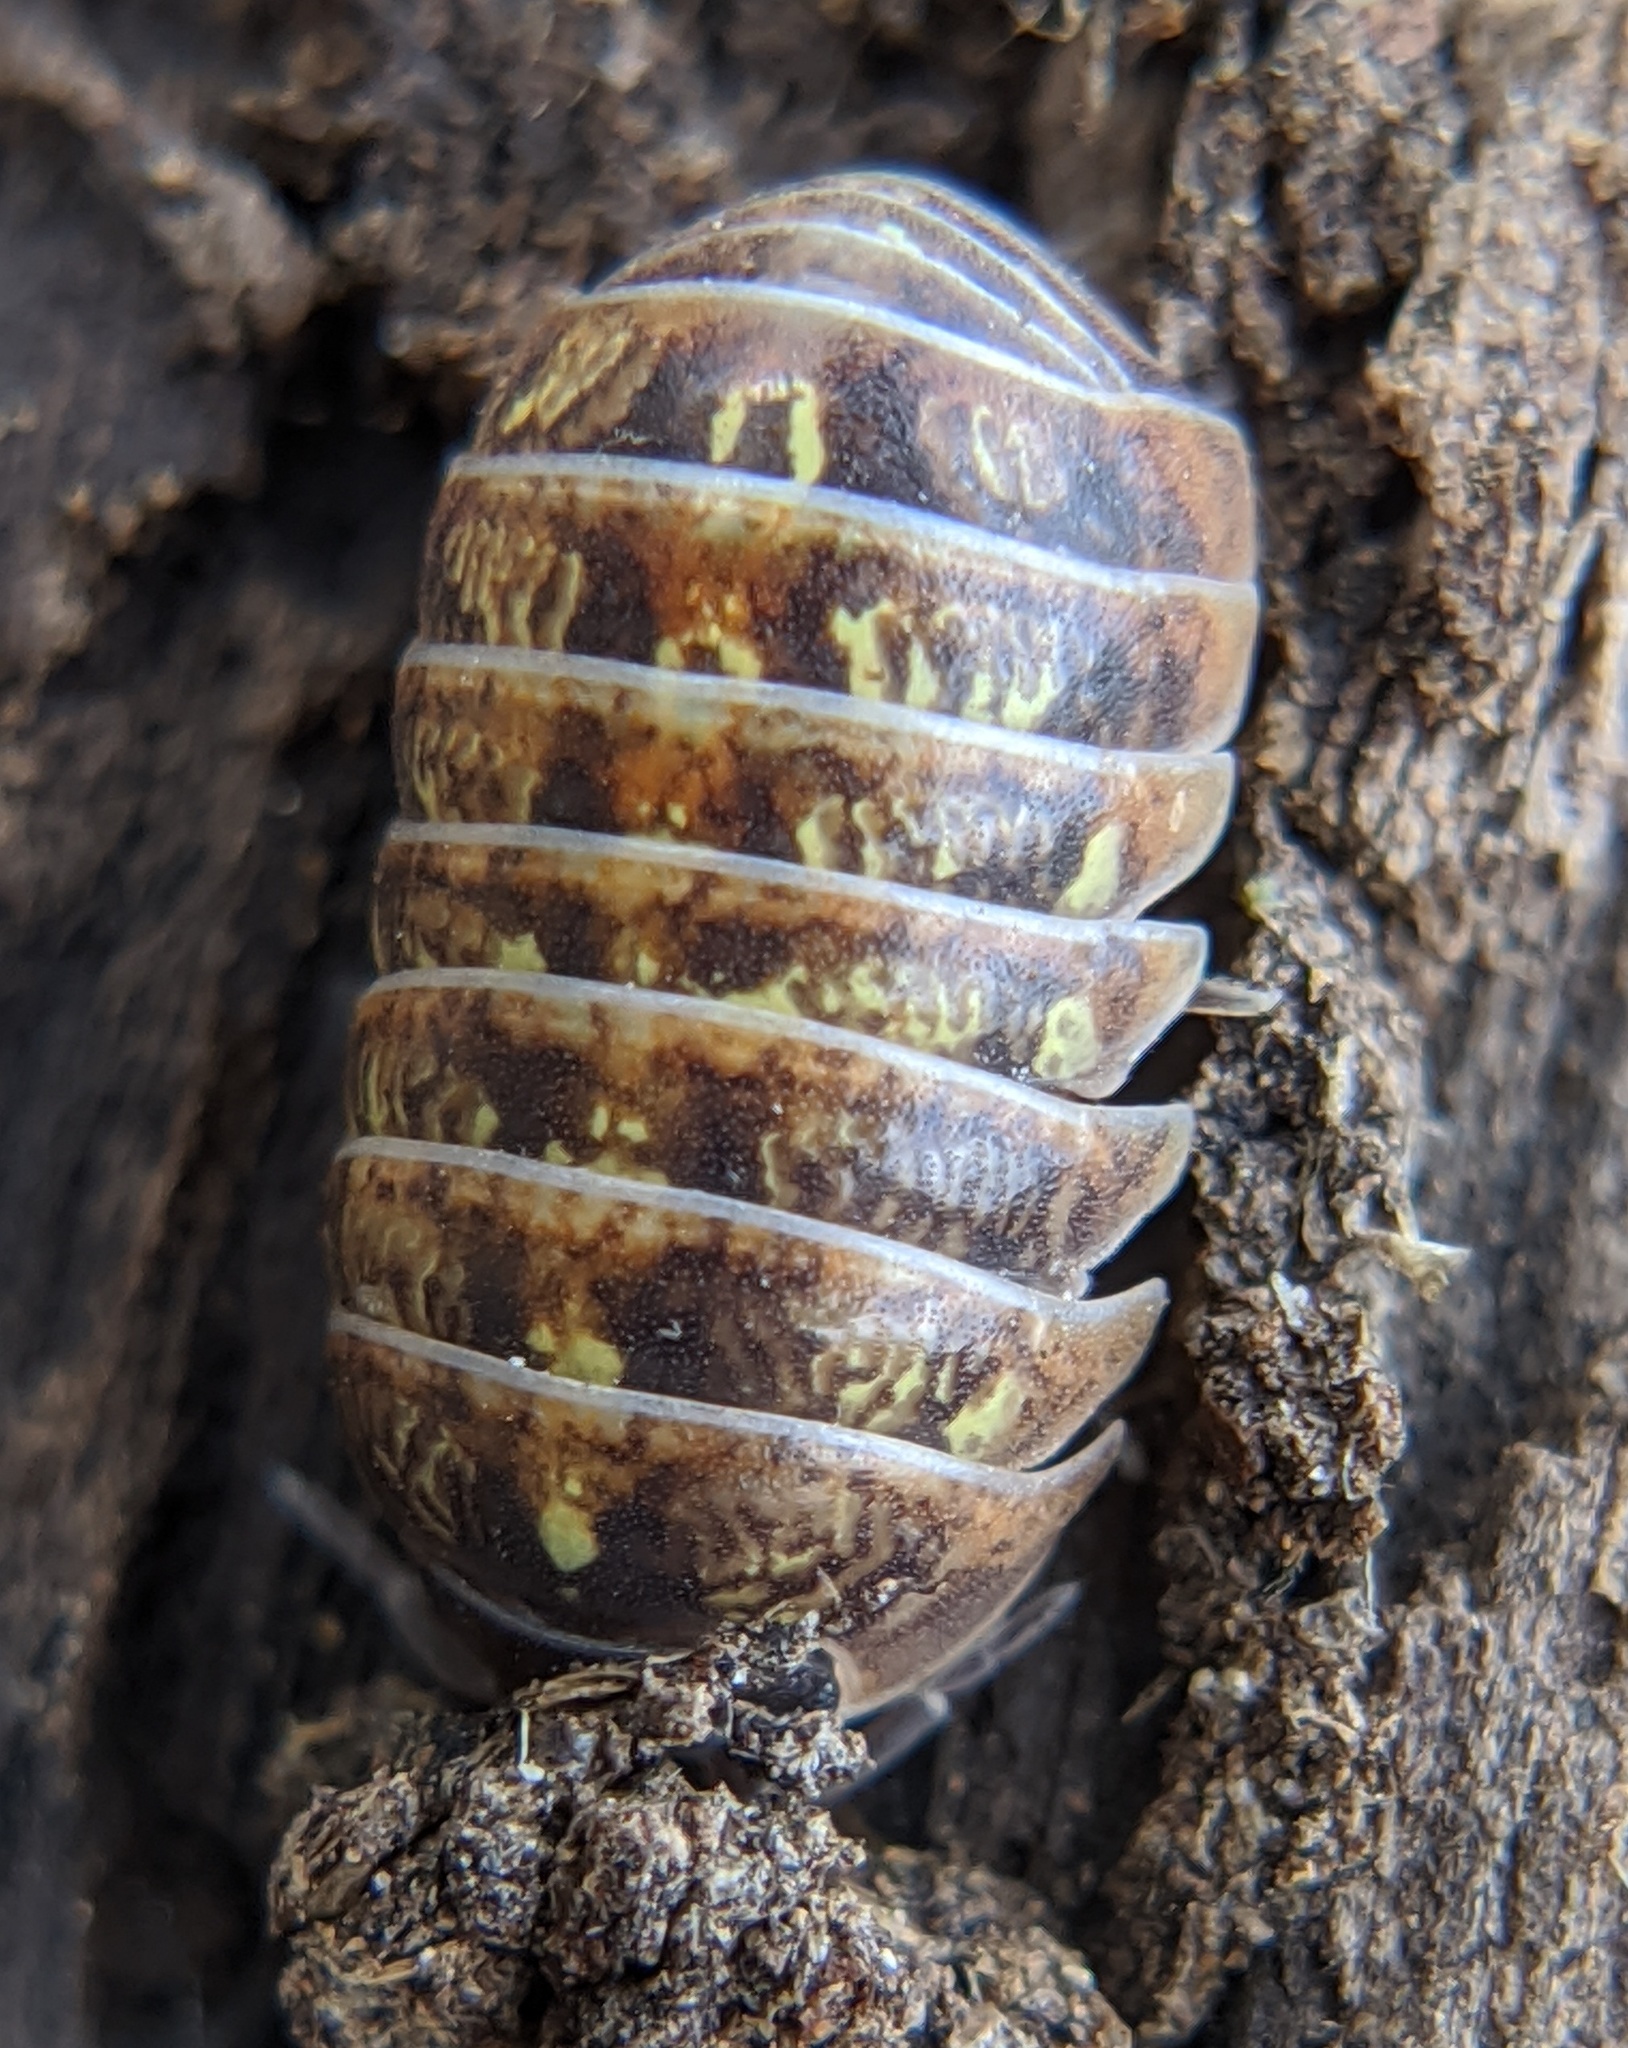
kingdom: Animalia
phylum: Arthropoda
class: Malacostraca
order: Isopoda
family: Armadillidiidae
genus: Armadillidium
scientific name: Armadillidium vulgare
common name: Common pill woodlouse
